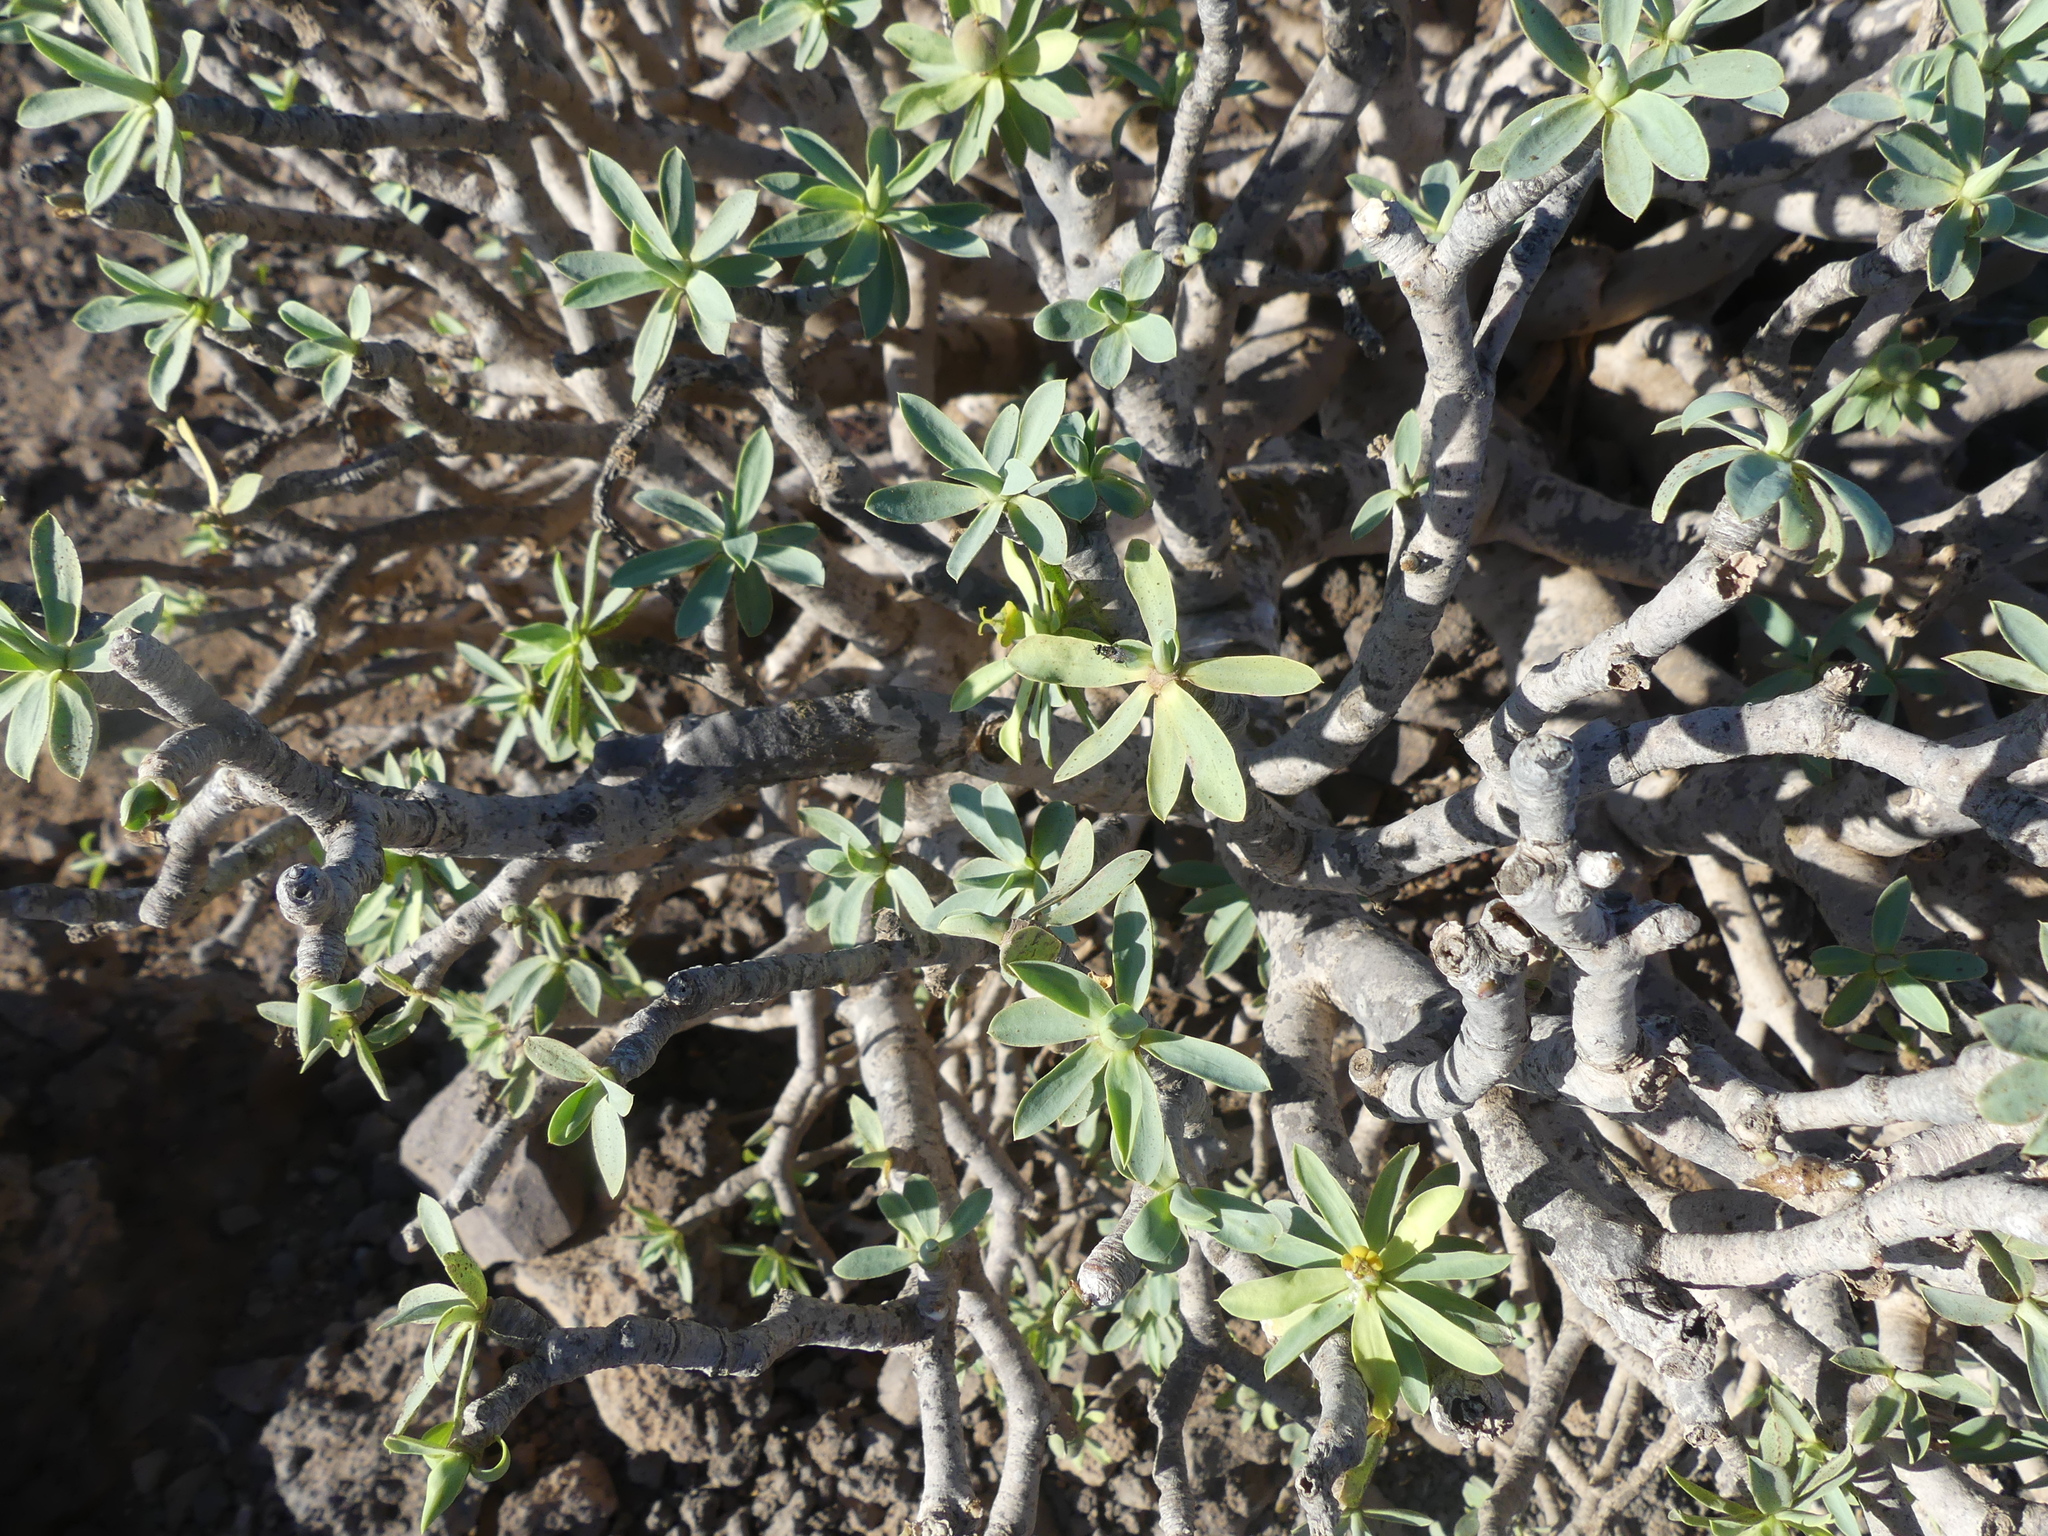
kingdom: Plantae
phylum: Tracheophyta
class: Magnoliopsida
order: Malpighiales
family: Euphorbiaceae
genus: Euphorbia
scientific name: Euphorbia balsamifera
